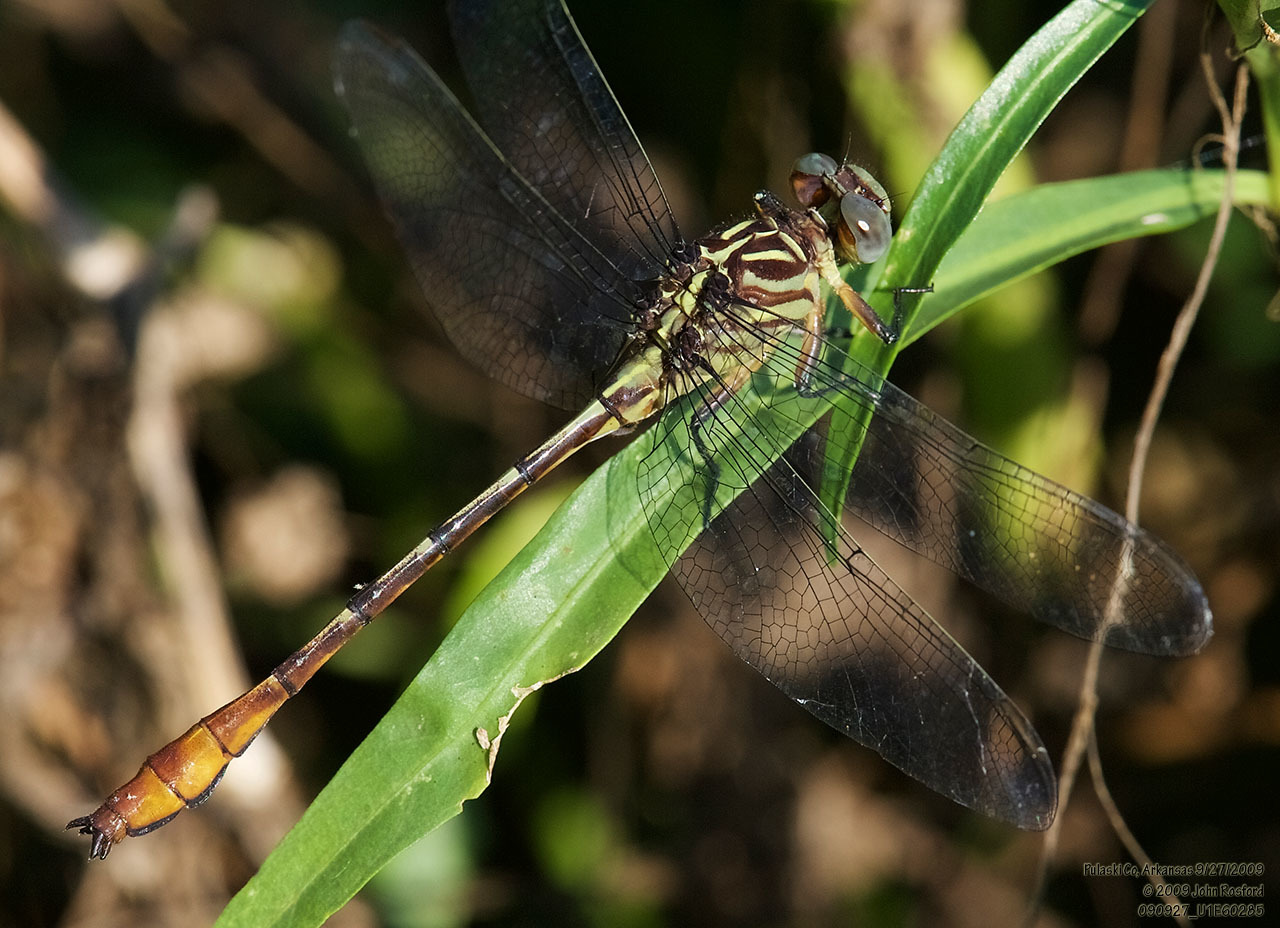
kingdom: Animalia
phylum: Arthropoda
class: Insecta
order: Odonata
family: Gomphidae
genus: Stylurus
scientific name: Stylurus plagiatus
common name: Russet-tipped clubtail
